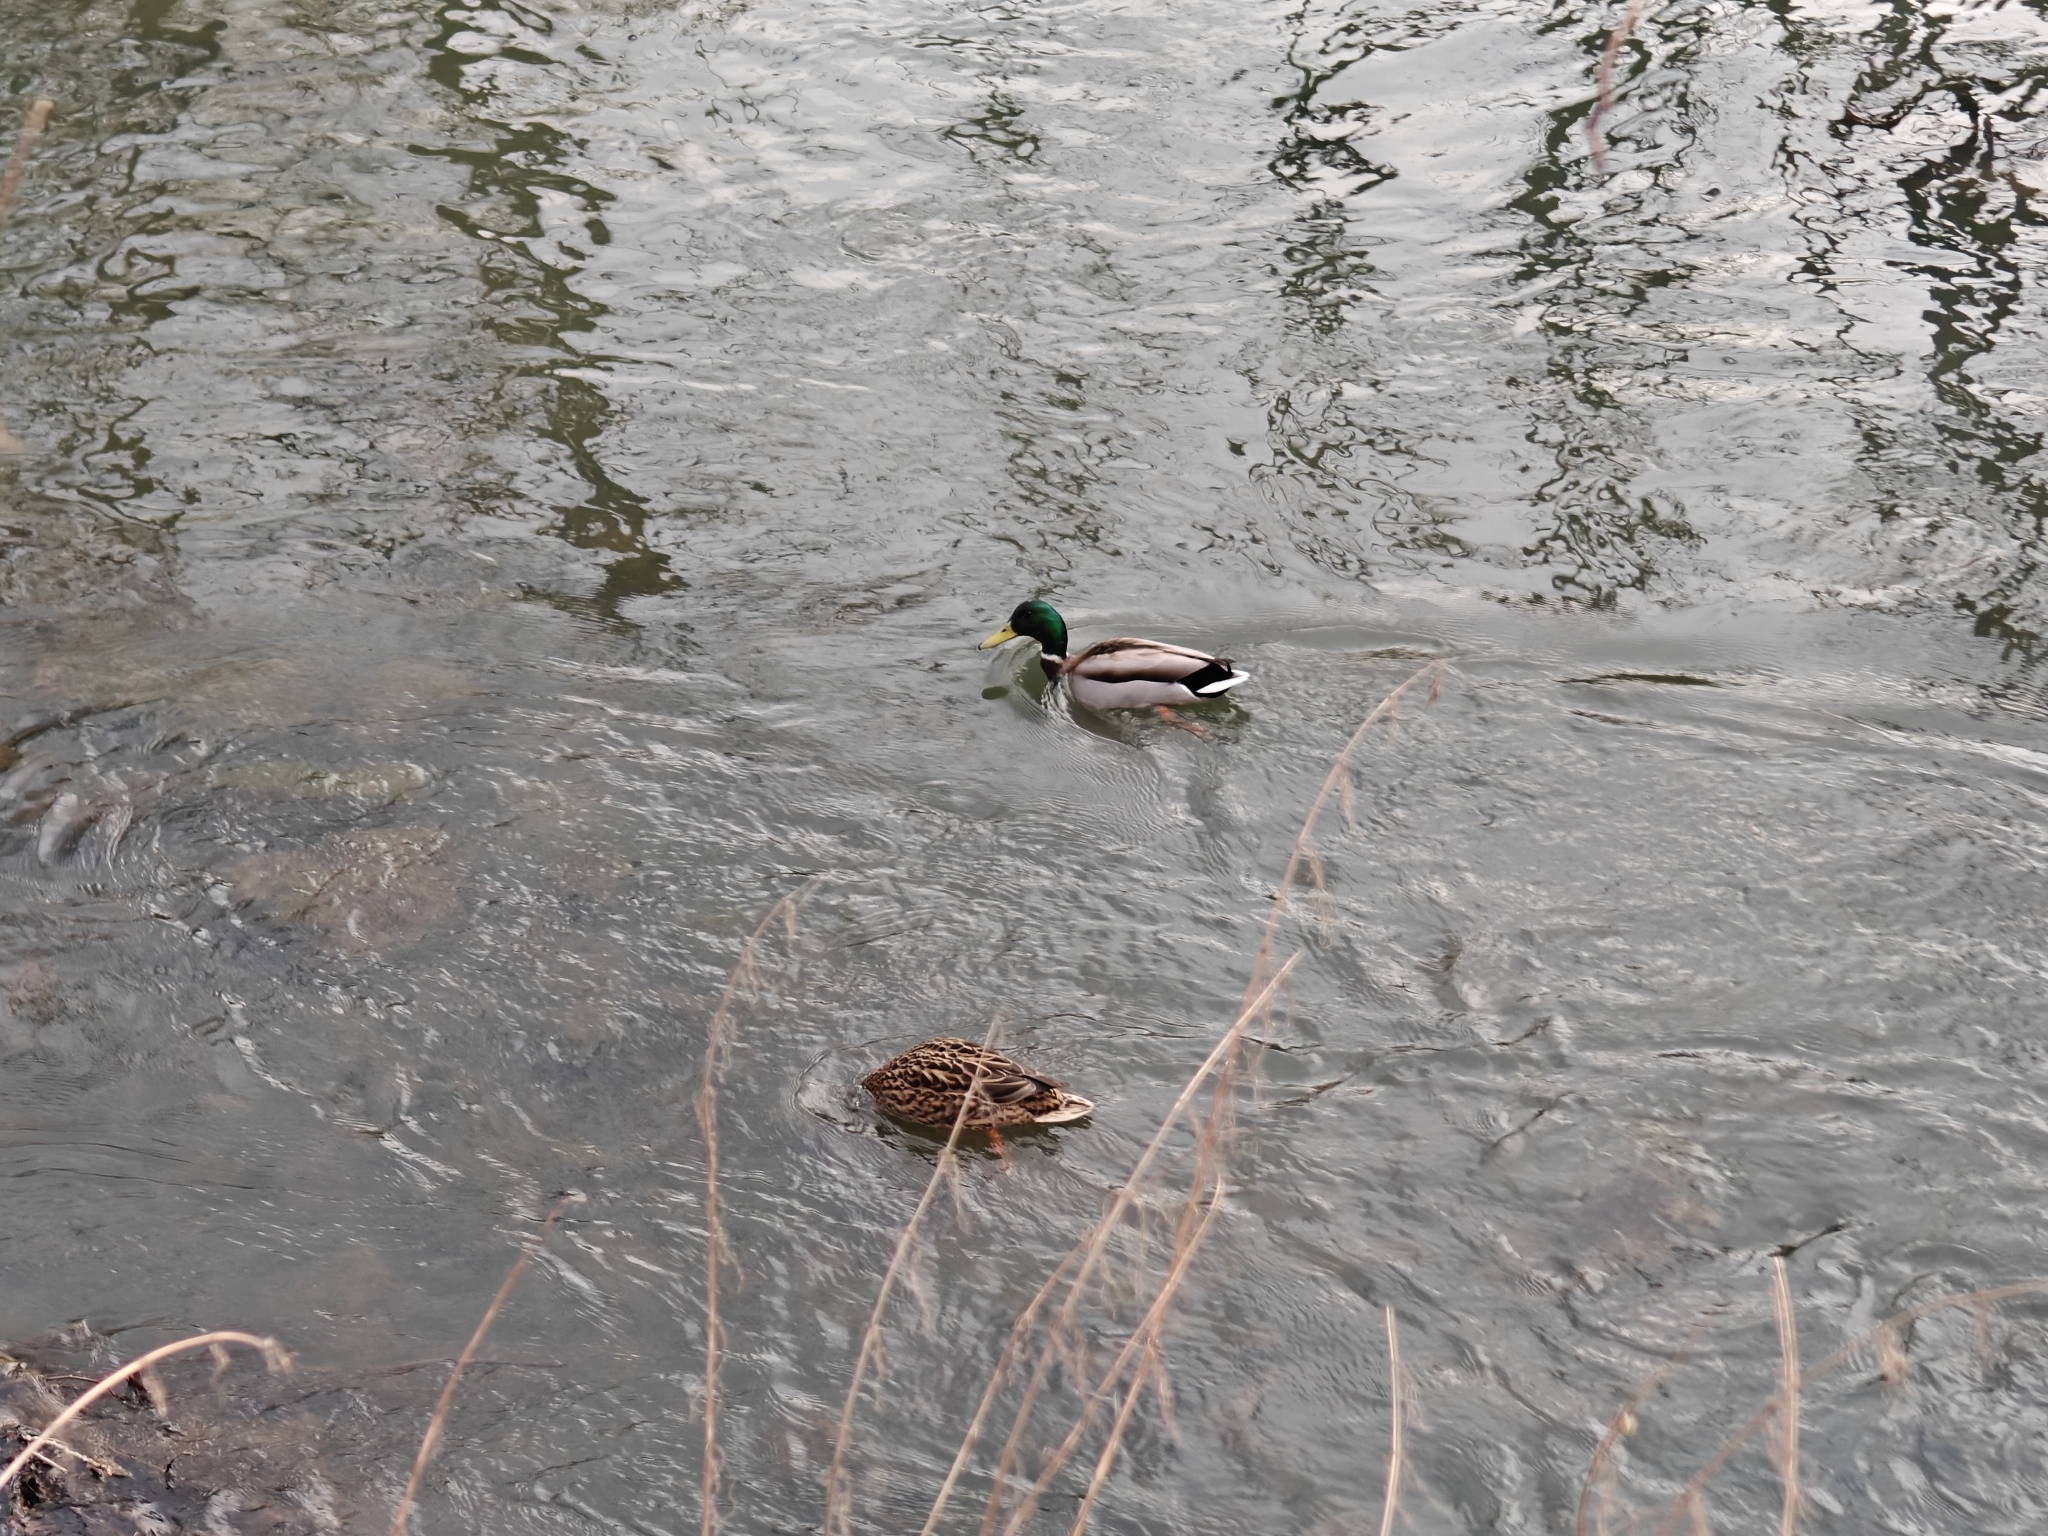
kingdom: Animalia
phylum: Chordata
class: Aves
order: Anseriformes
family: Anatidae
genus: Anas
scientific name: Anas platyrhynchos
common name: Mallard
